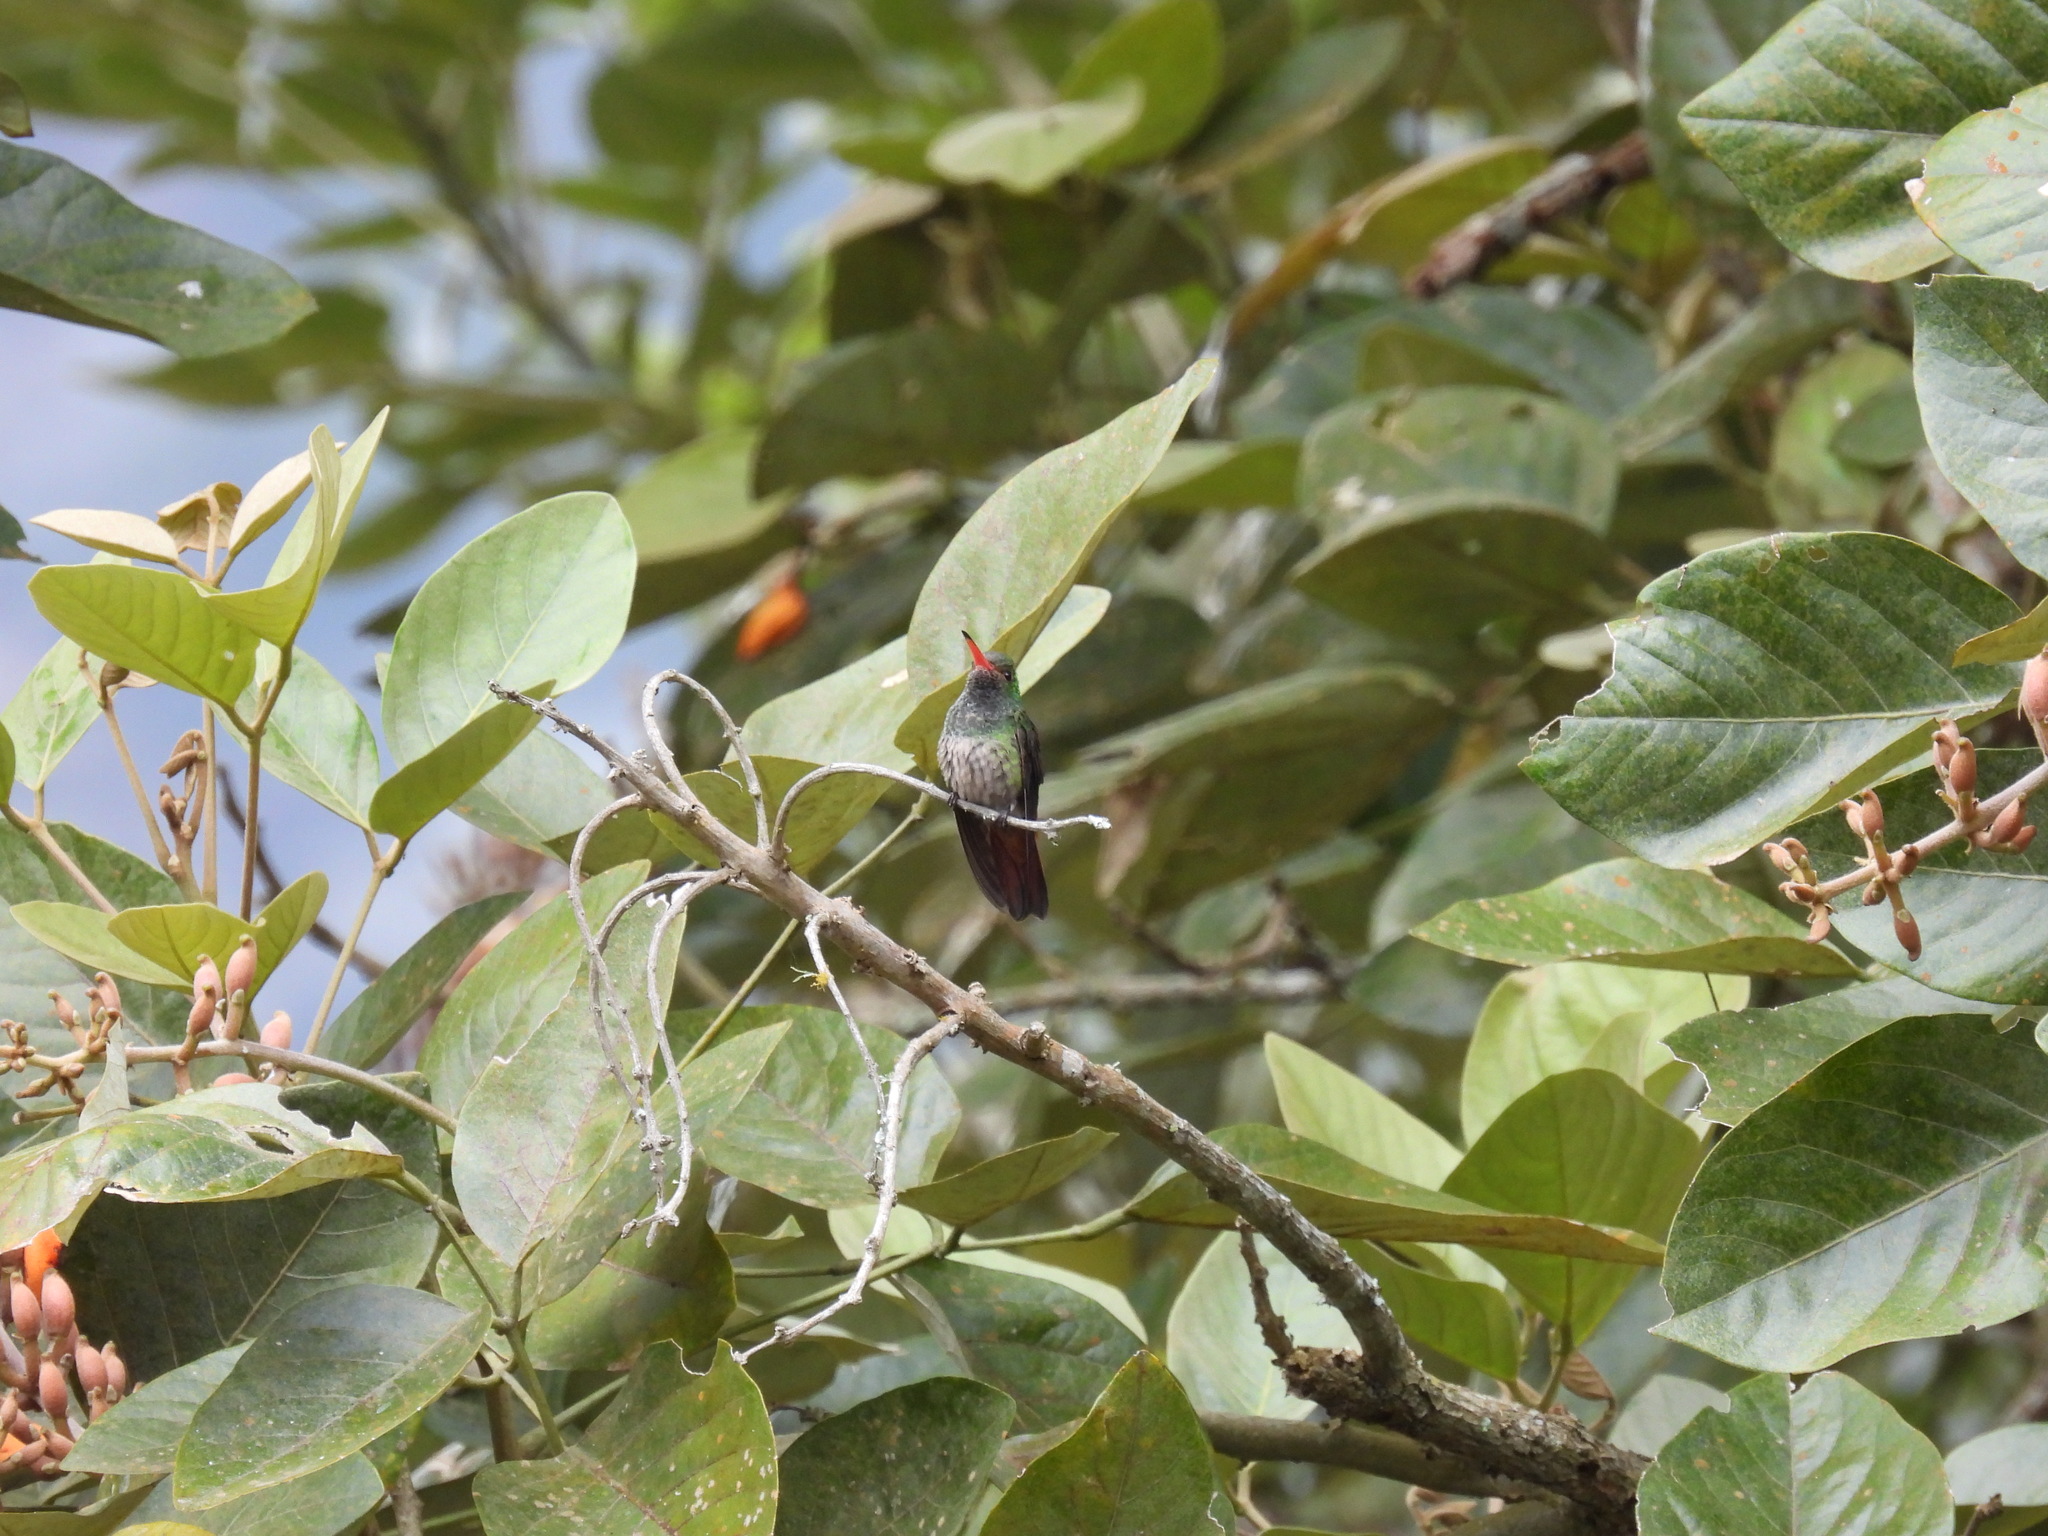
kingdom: Animalia
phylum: Chordata
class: Aves
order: Apodiformes
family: Trochilidae
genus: Amazilia
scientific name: Amazilia tzacatl
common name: Rufous-tailed hummingbird
